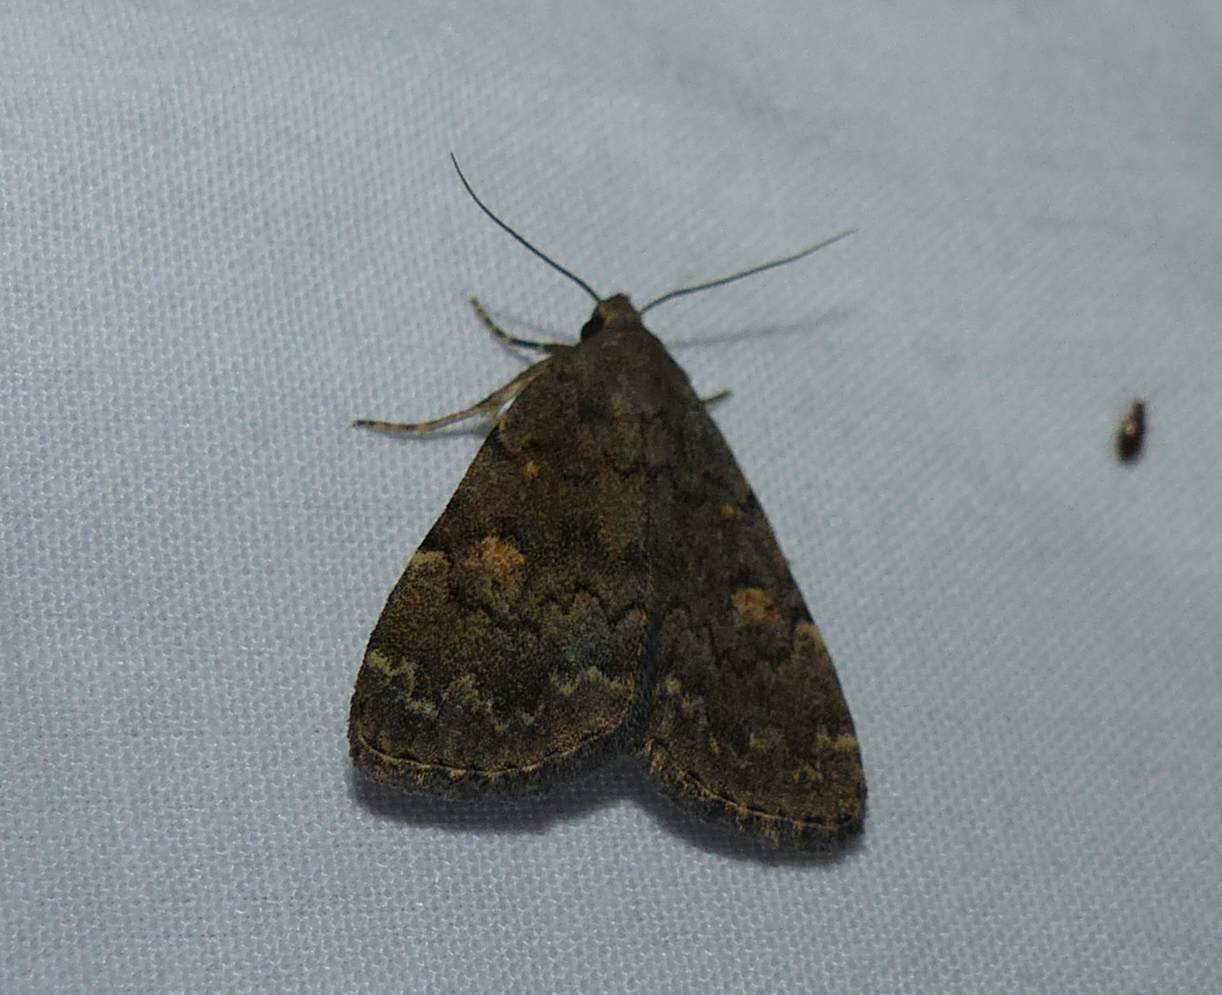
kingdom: Animalia
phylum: Arthropoda
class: Insecta
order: Lepidoptera
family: Erebidae
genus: Idia
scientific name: Idia aemula
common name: Common idia moth
